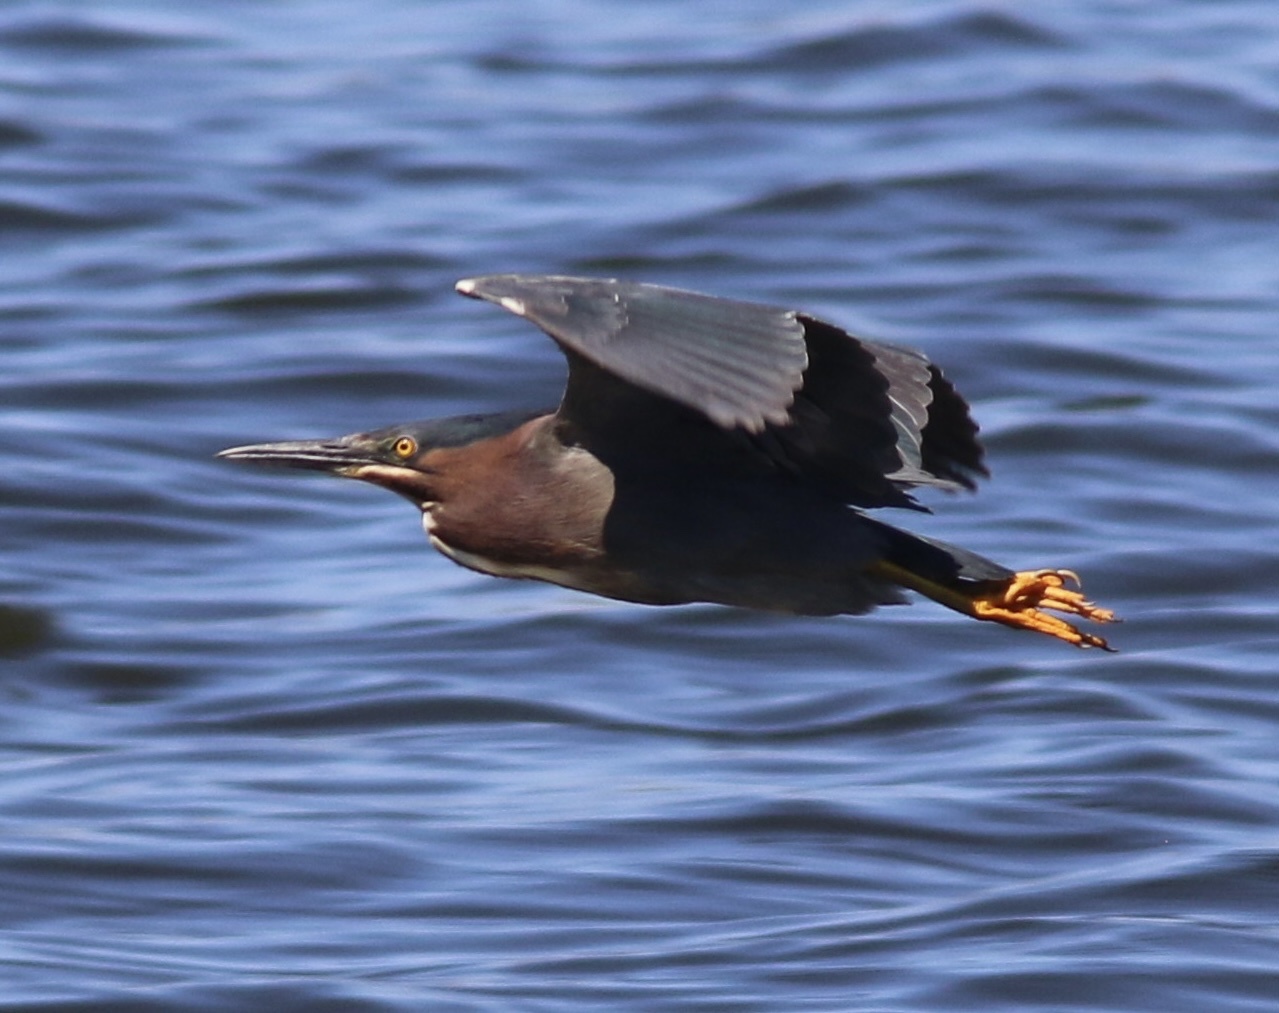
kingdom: Animalia
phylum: Chordata
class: Aves
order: Pelecaniformes
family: Ardeidae
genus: Butorides
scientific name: Butorides virescens
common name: Green heron
